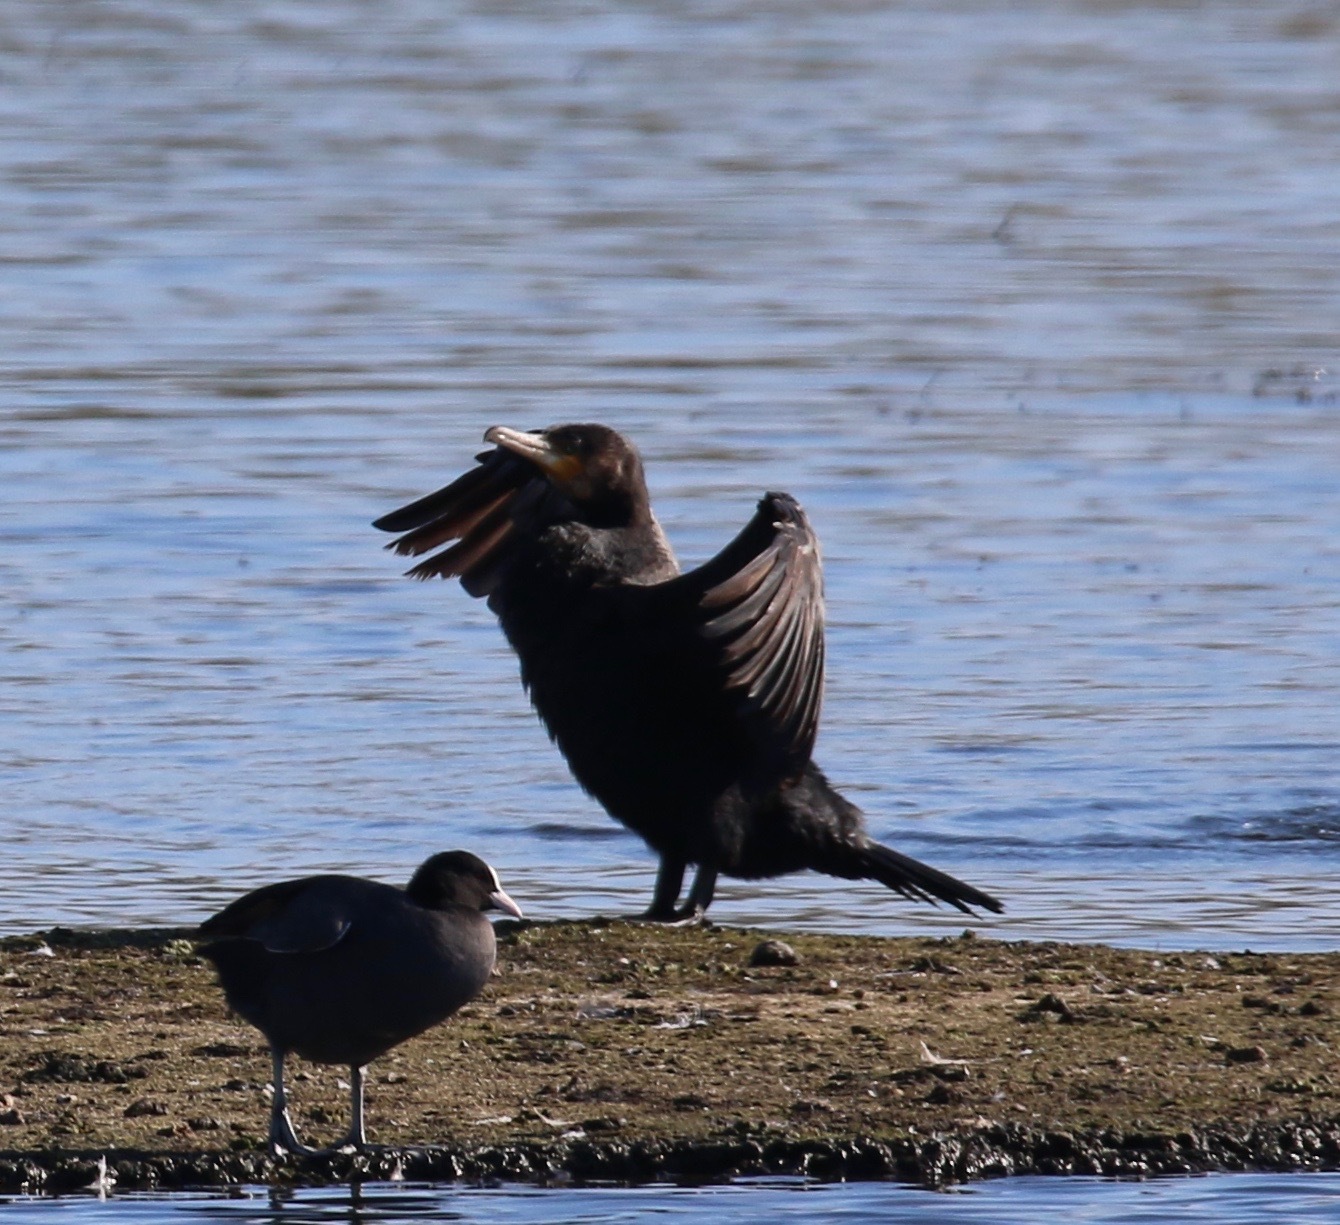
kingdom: Animalia
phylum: Chordata
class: Aves
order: Suliformes
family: Phalacrocoracidae
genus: Phalacrocorax
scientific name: Phalacrocorax carbo
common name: Great cormorant
